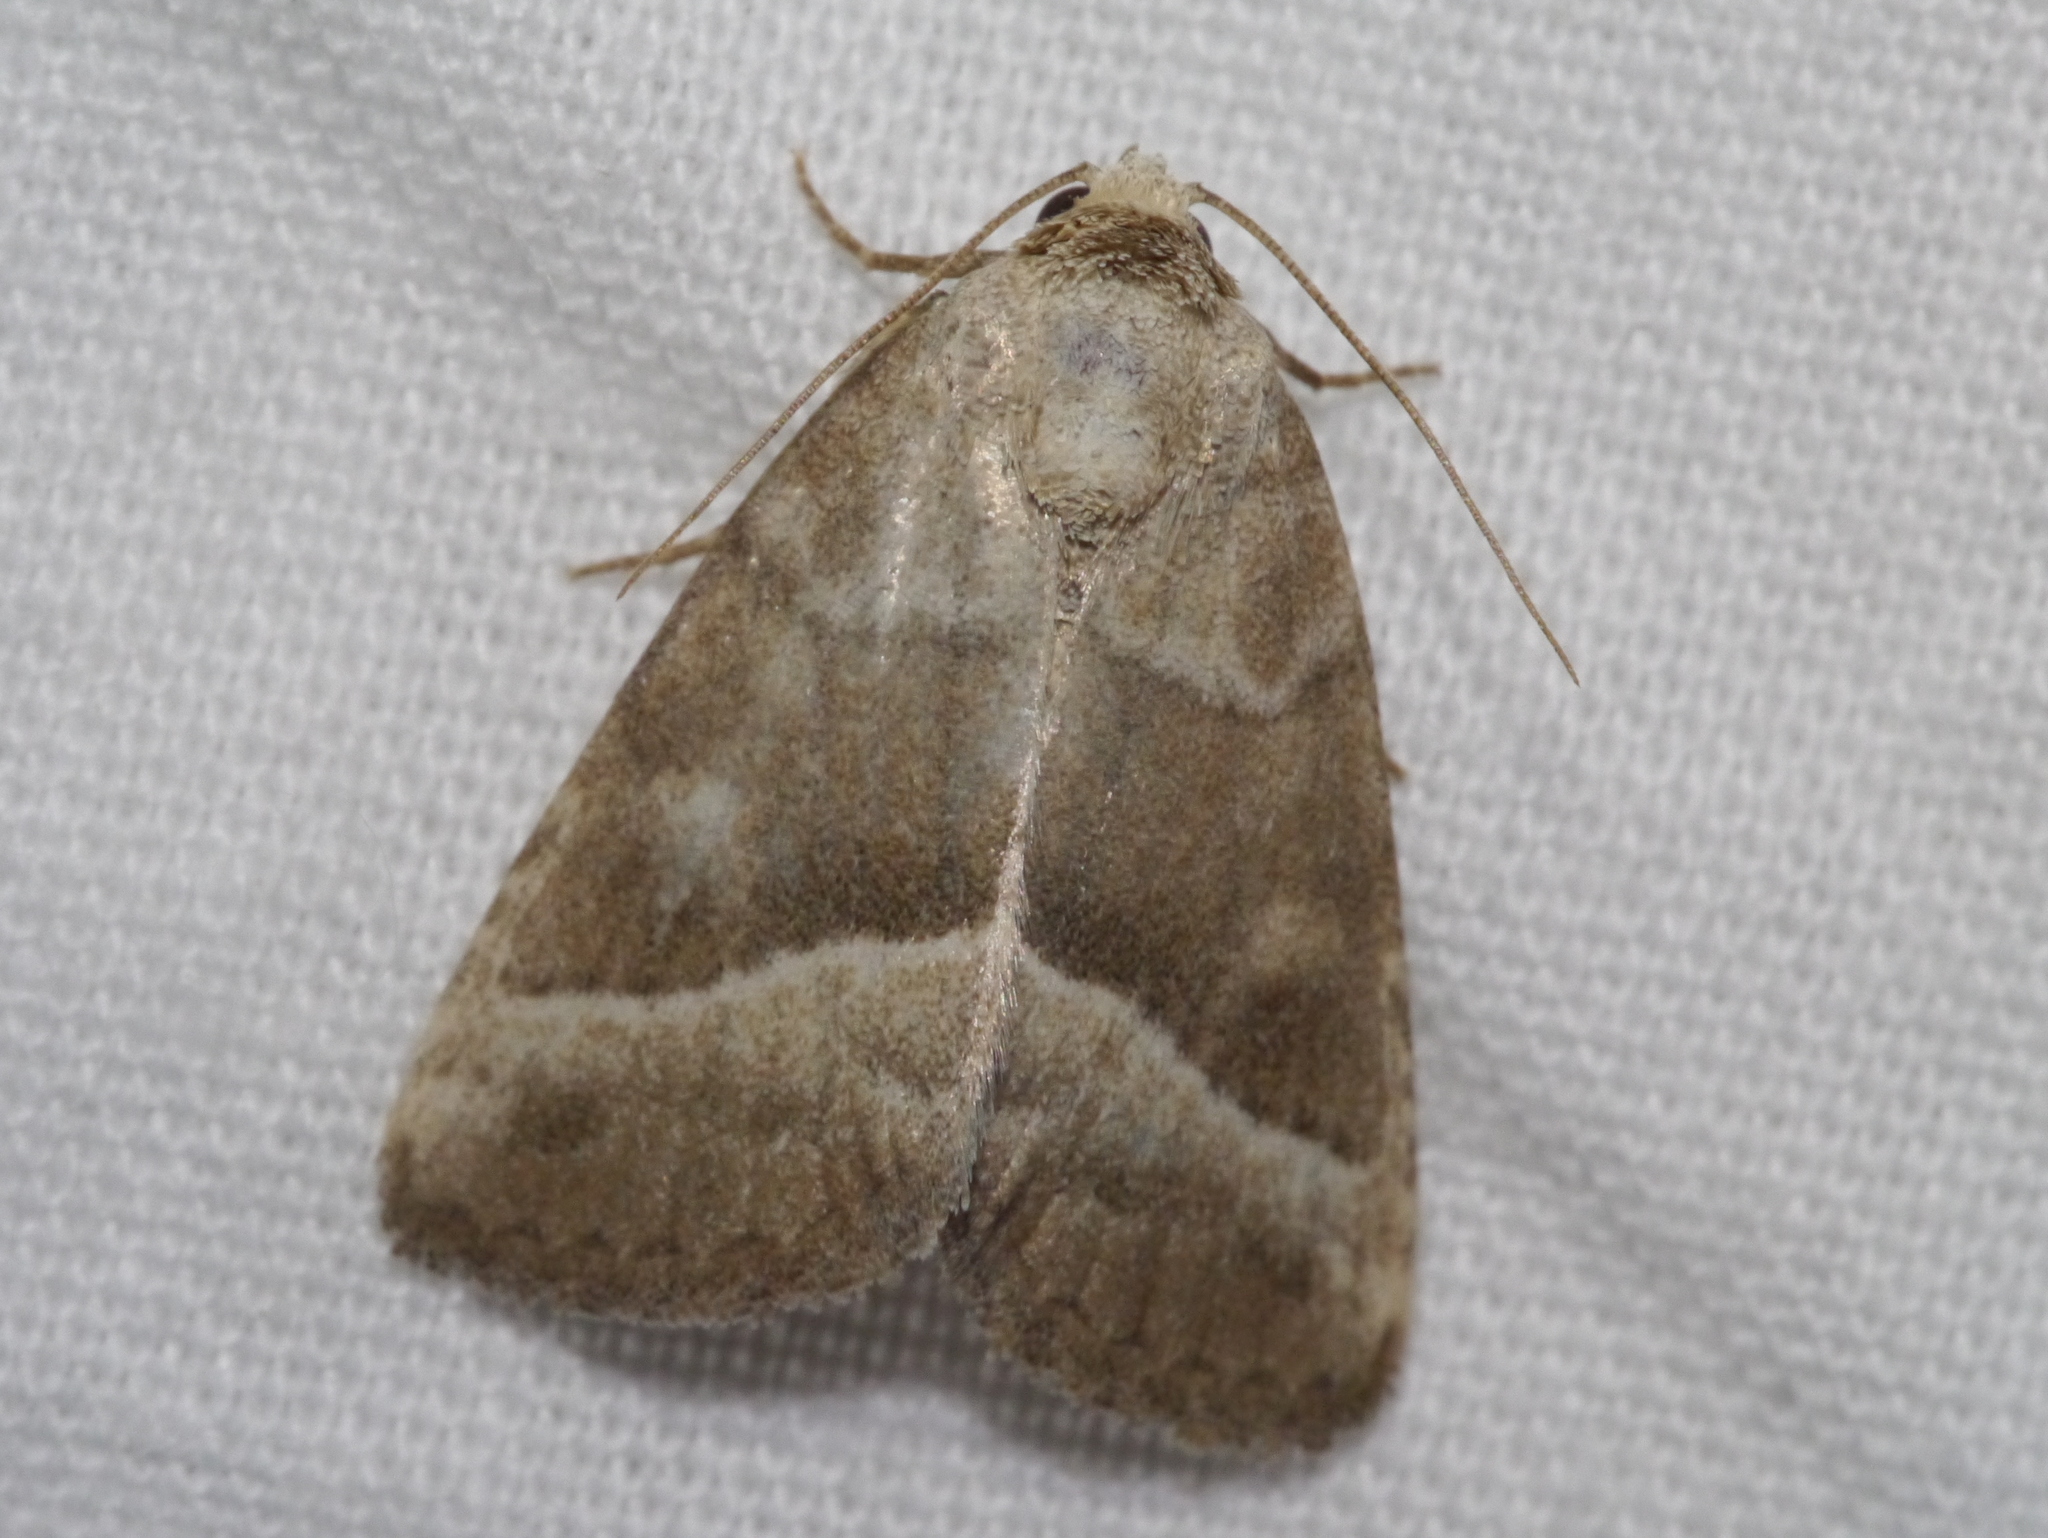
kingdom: Animalia
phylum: Arthropoda
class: Insecta
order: Lepidoptera
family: Noctuidae
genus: Ogdoconta
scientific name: Ogdoconta moreno
